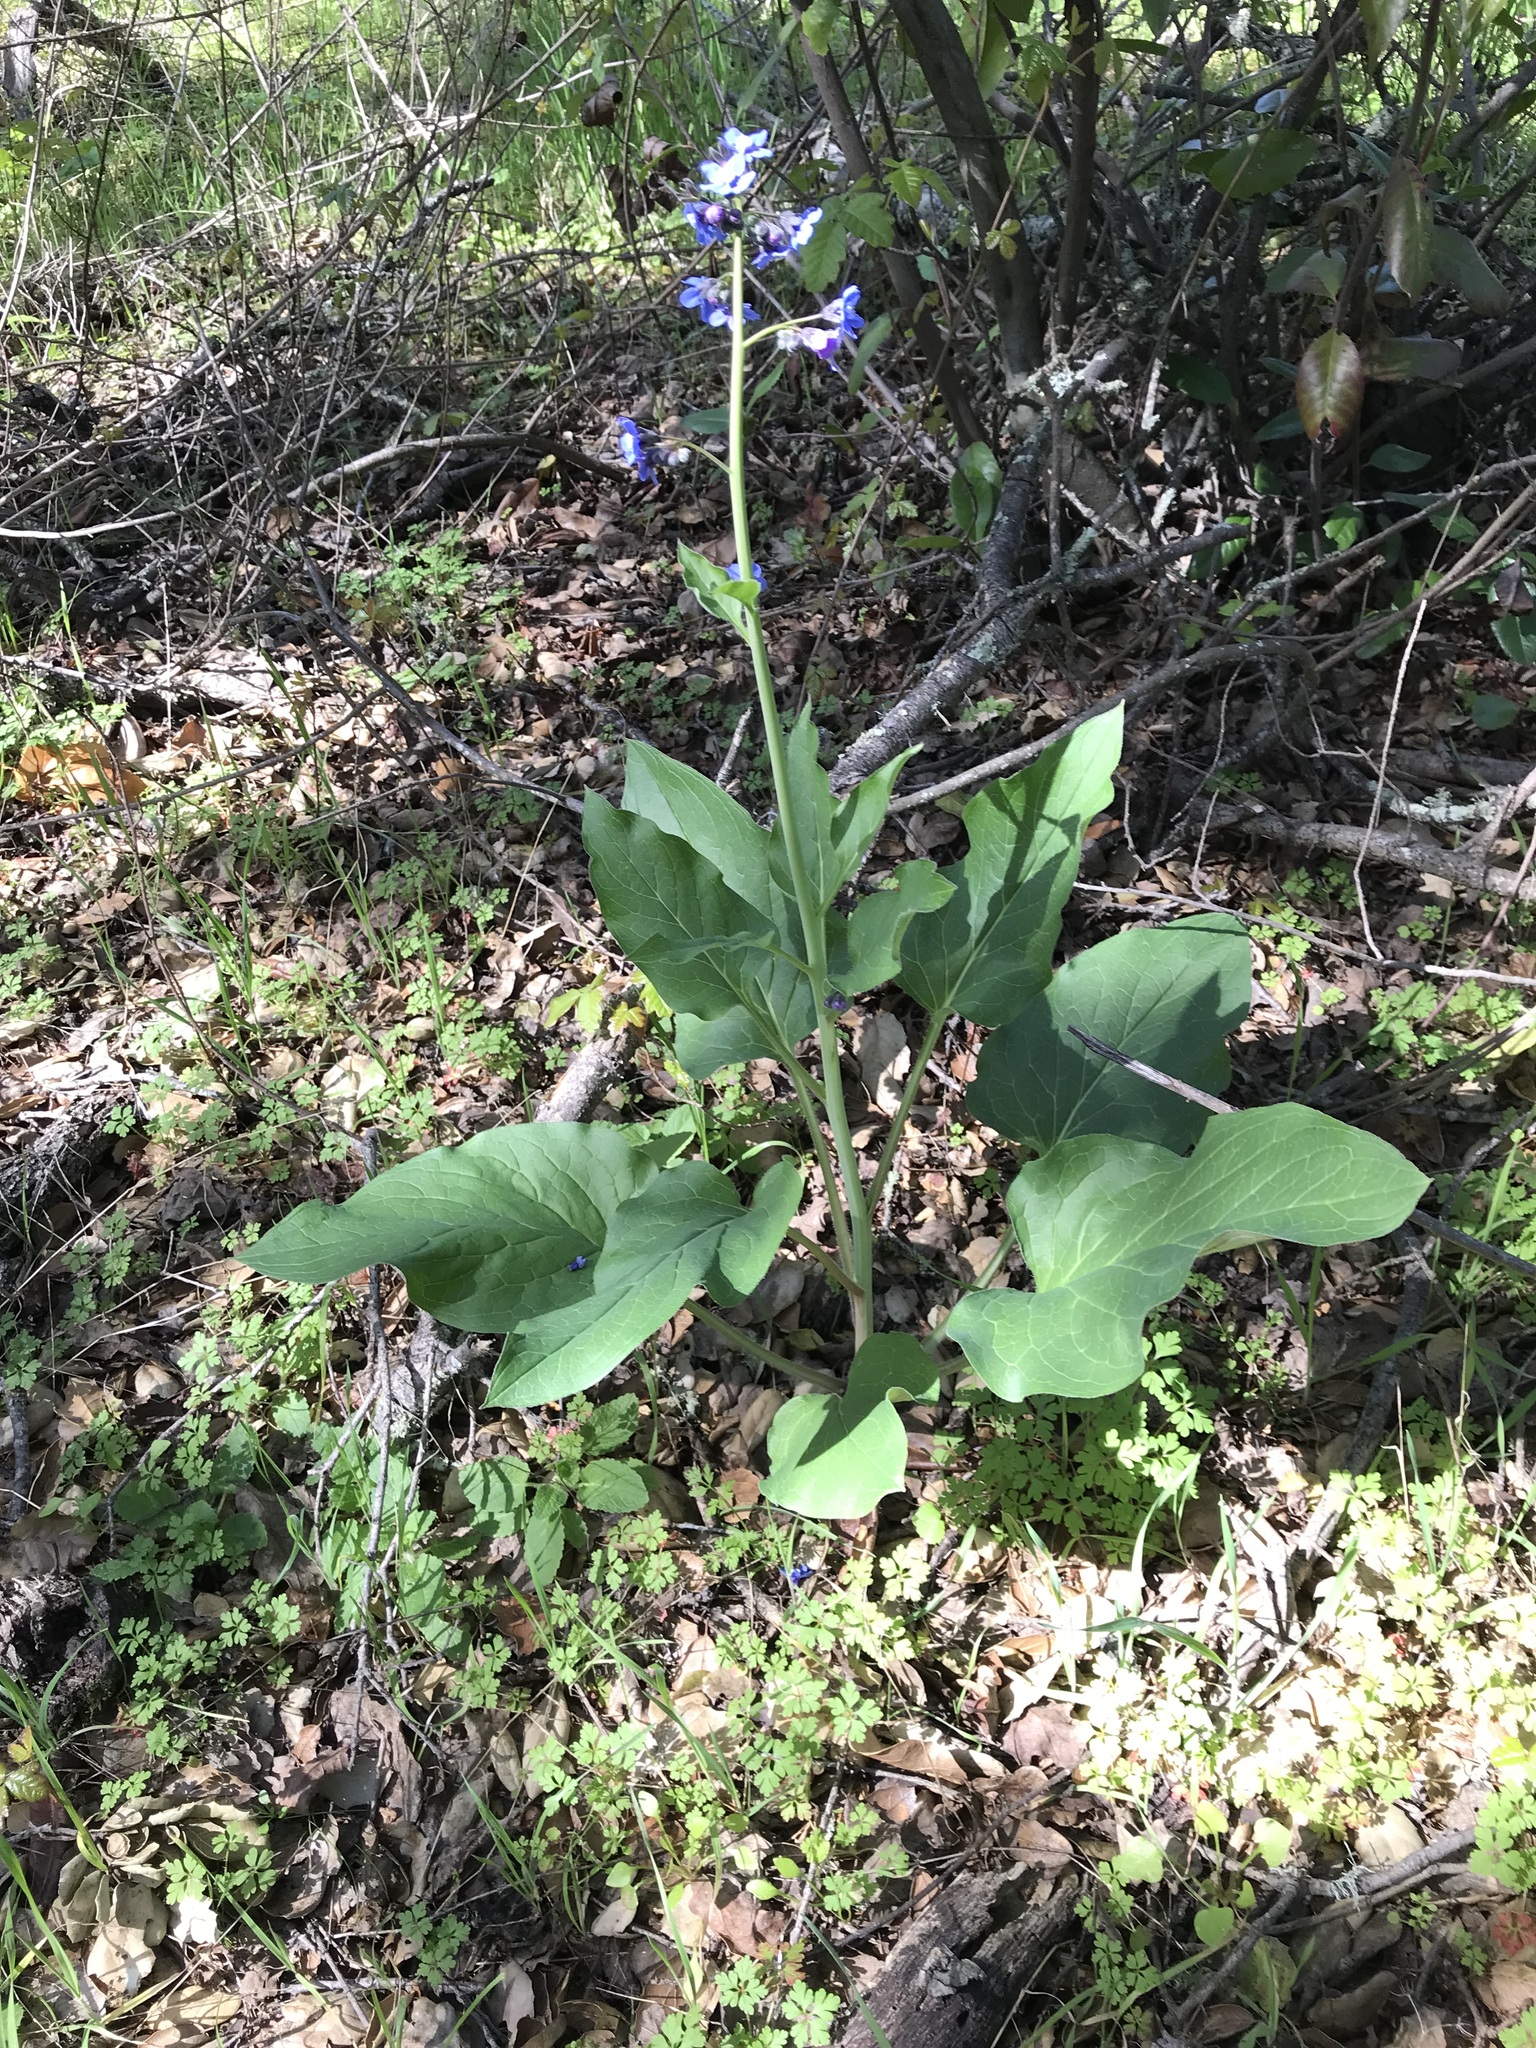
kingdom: Plantae
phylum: Tracheophyta
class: Magnoliopsida
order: Boraginales
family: Boraginaceae
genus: Adelinia
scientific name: Adelinia grande
